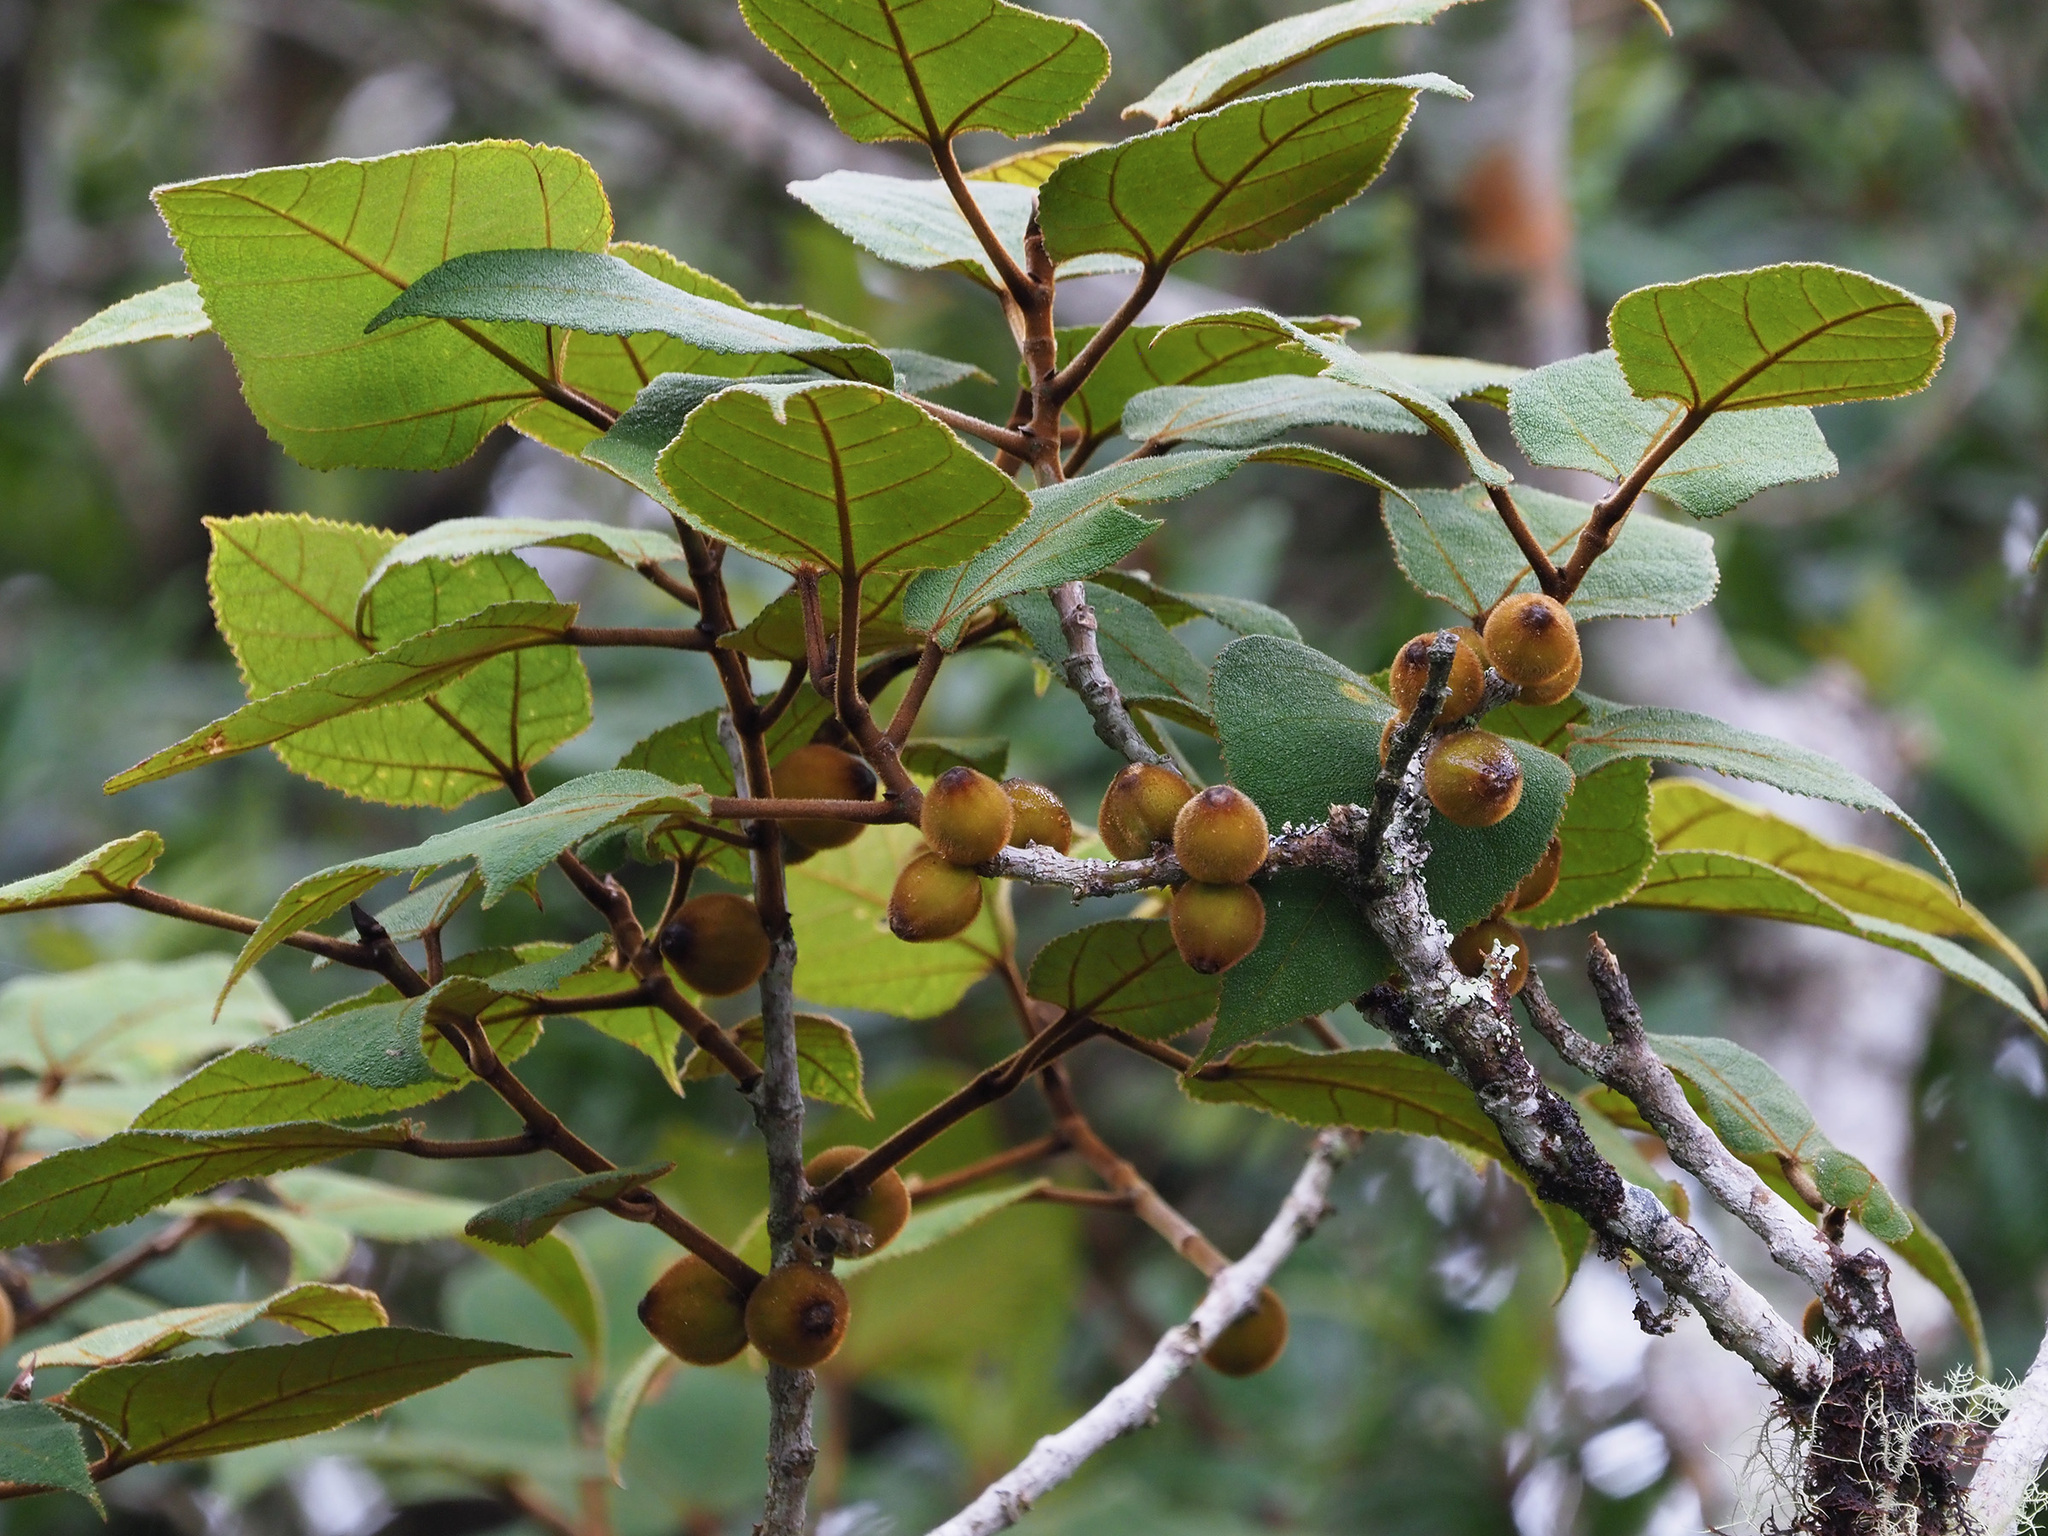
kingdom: Plantae
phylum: Tracheophyta
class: Magnoliopsida
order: Rosales
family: Moraceae
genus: Ficus
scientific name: Ficus eumorpha
